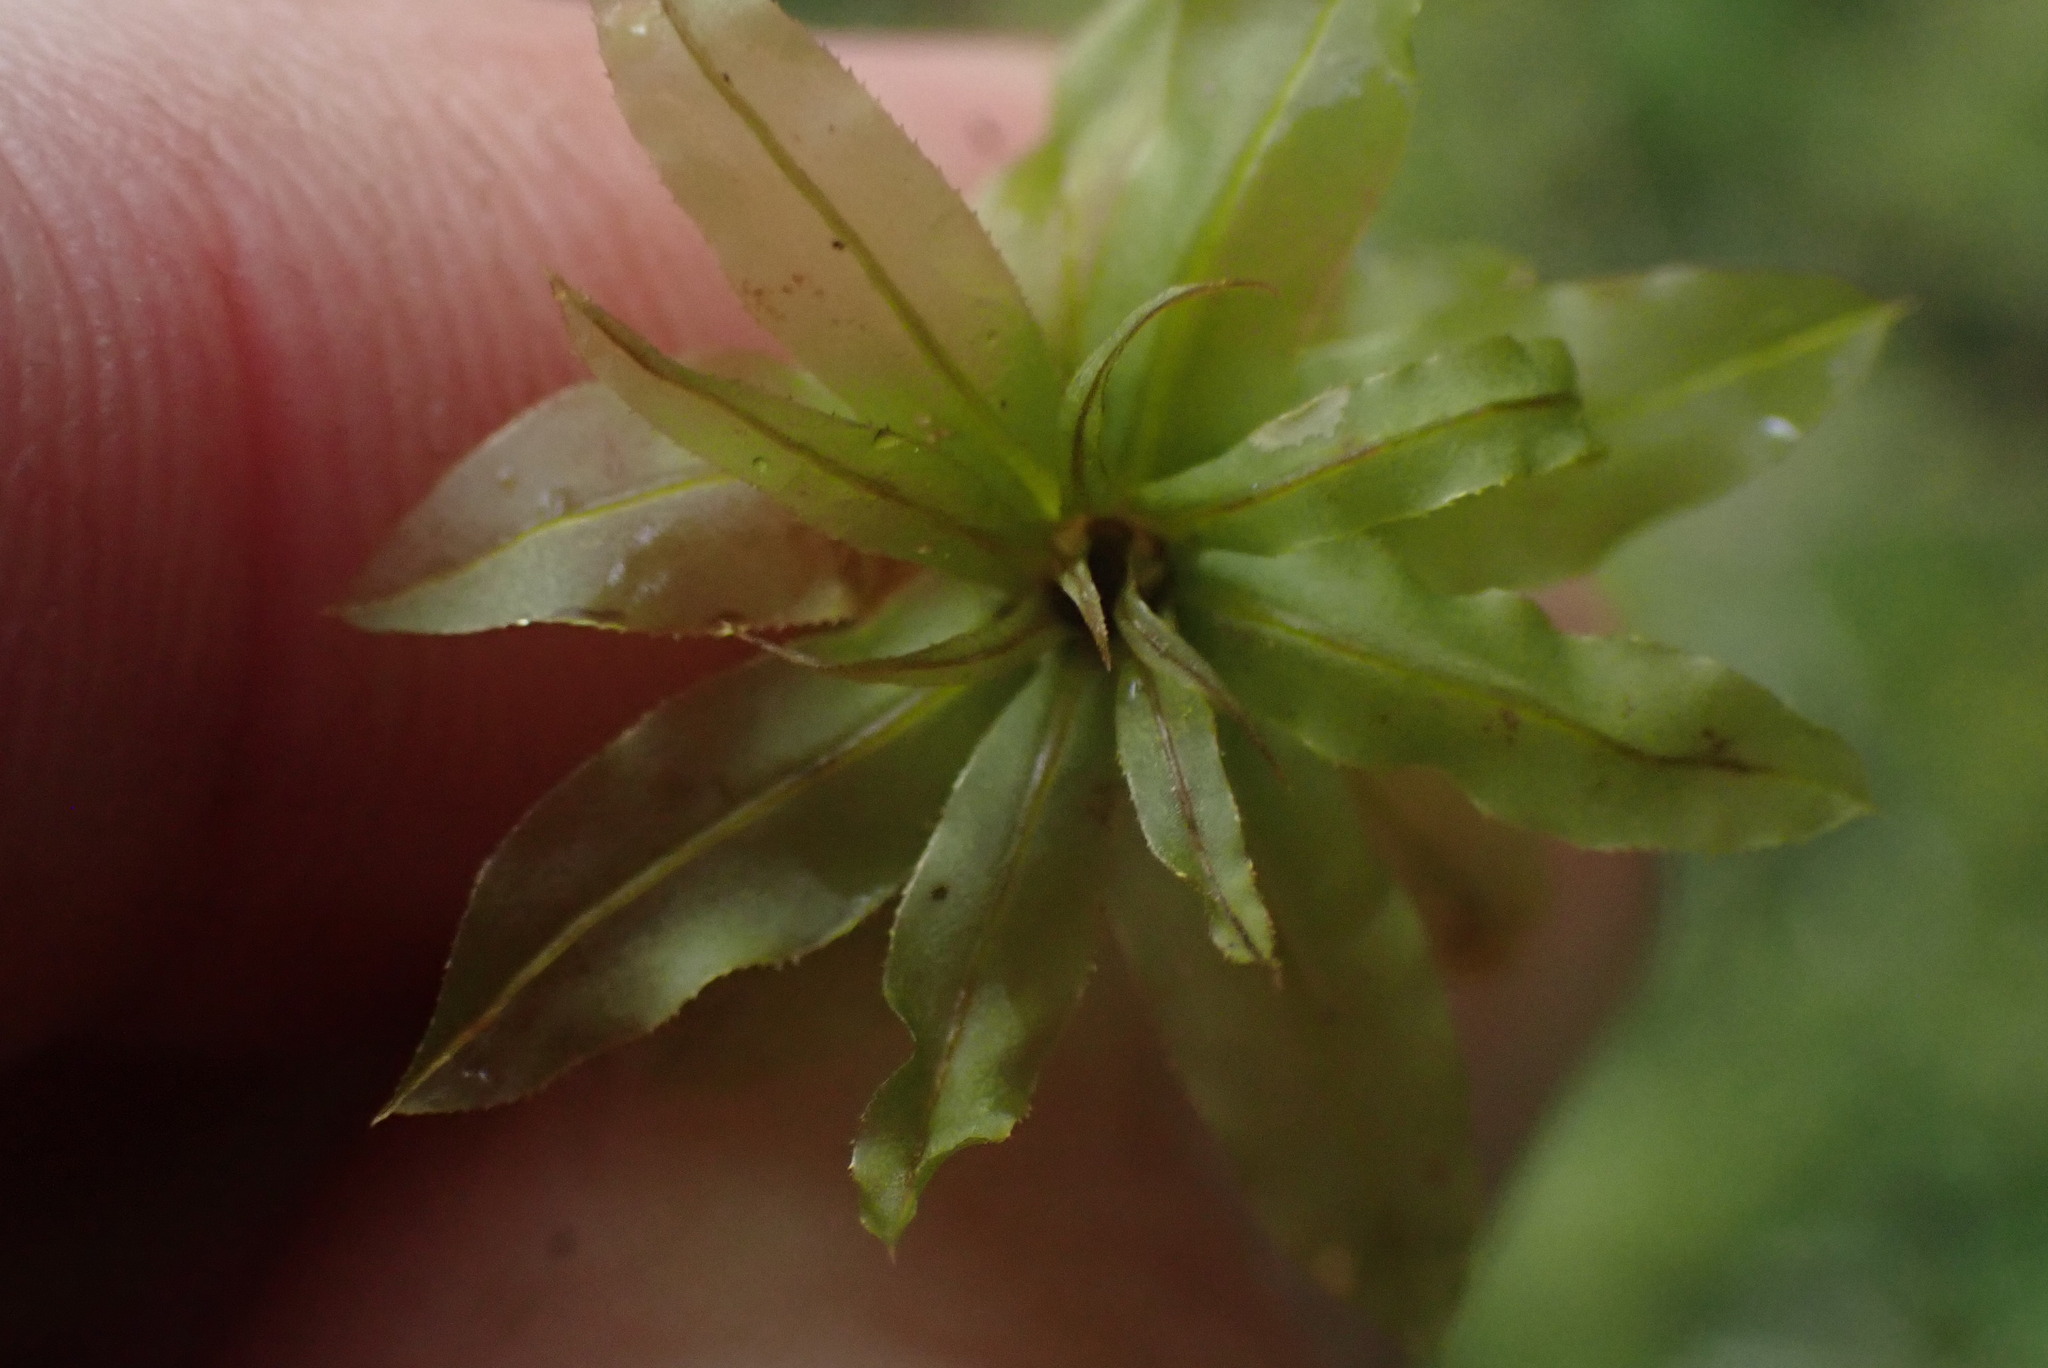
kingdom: Plantae
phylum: Bryophyta
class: Bryopsida
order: Bryales
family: Mniaceae
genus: Plagiomnium
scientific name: Plagiomnium insigne
